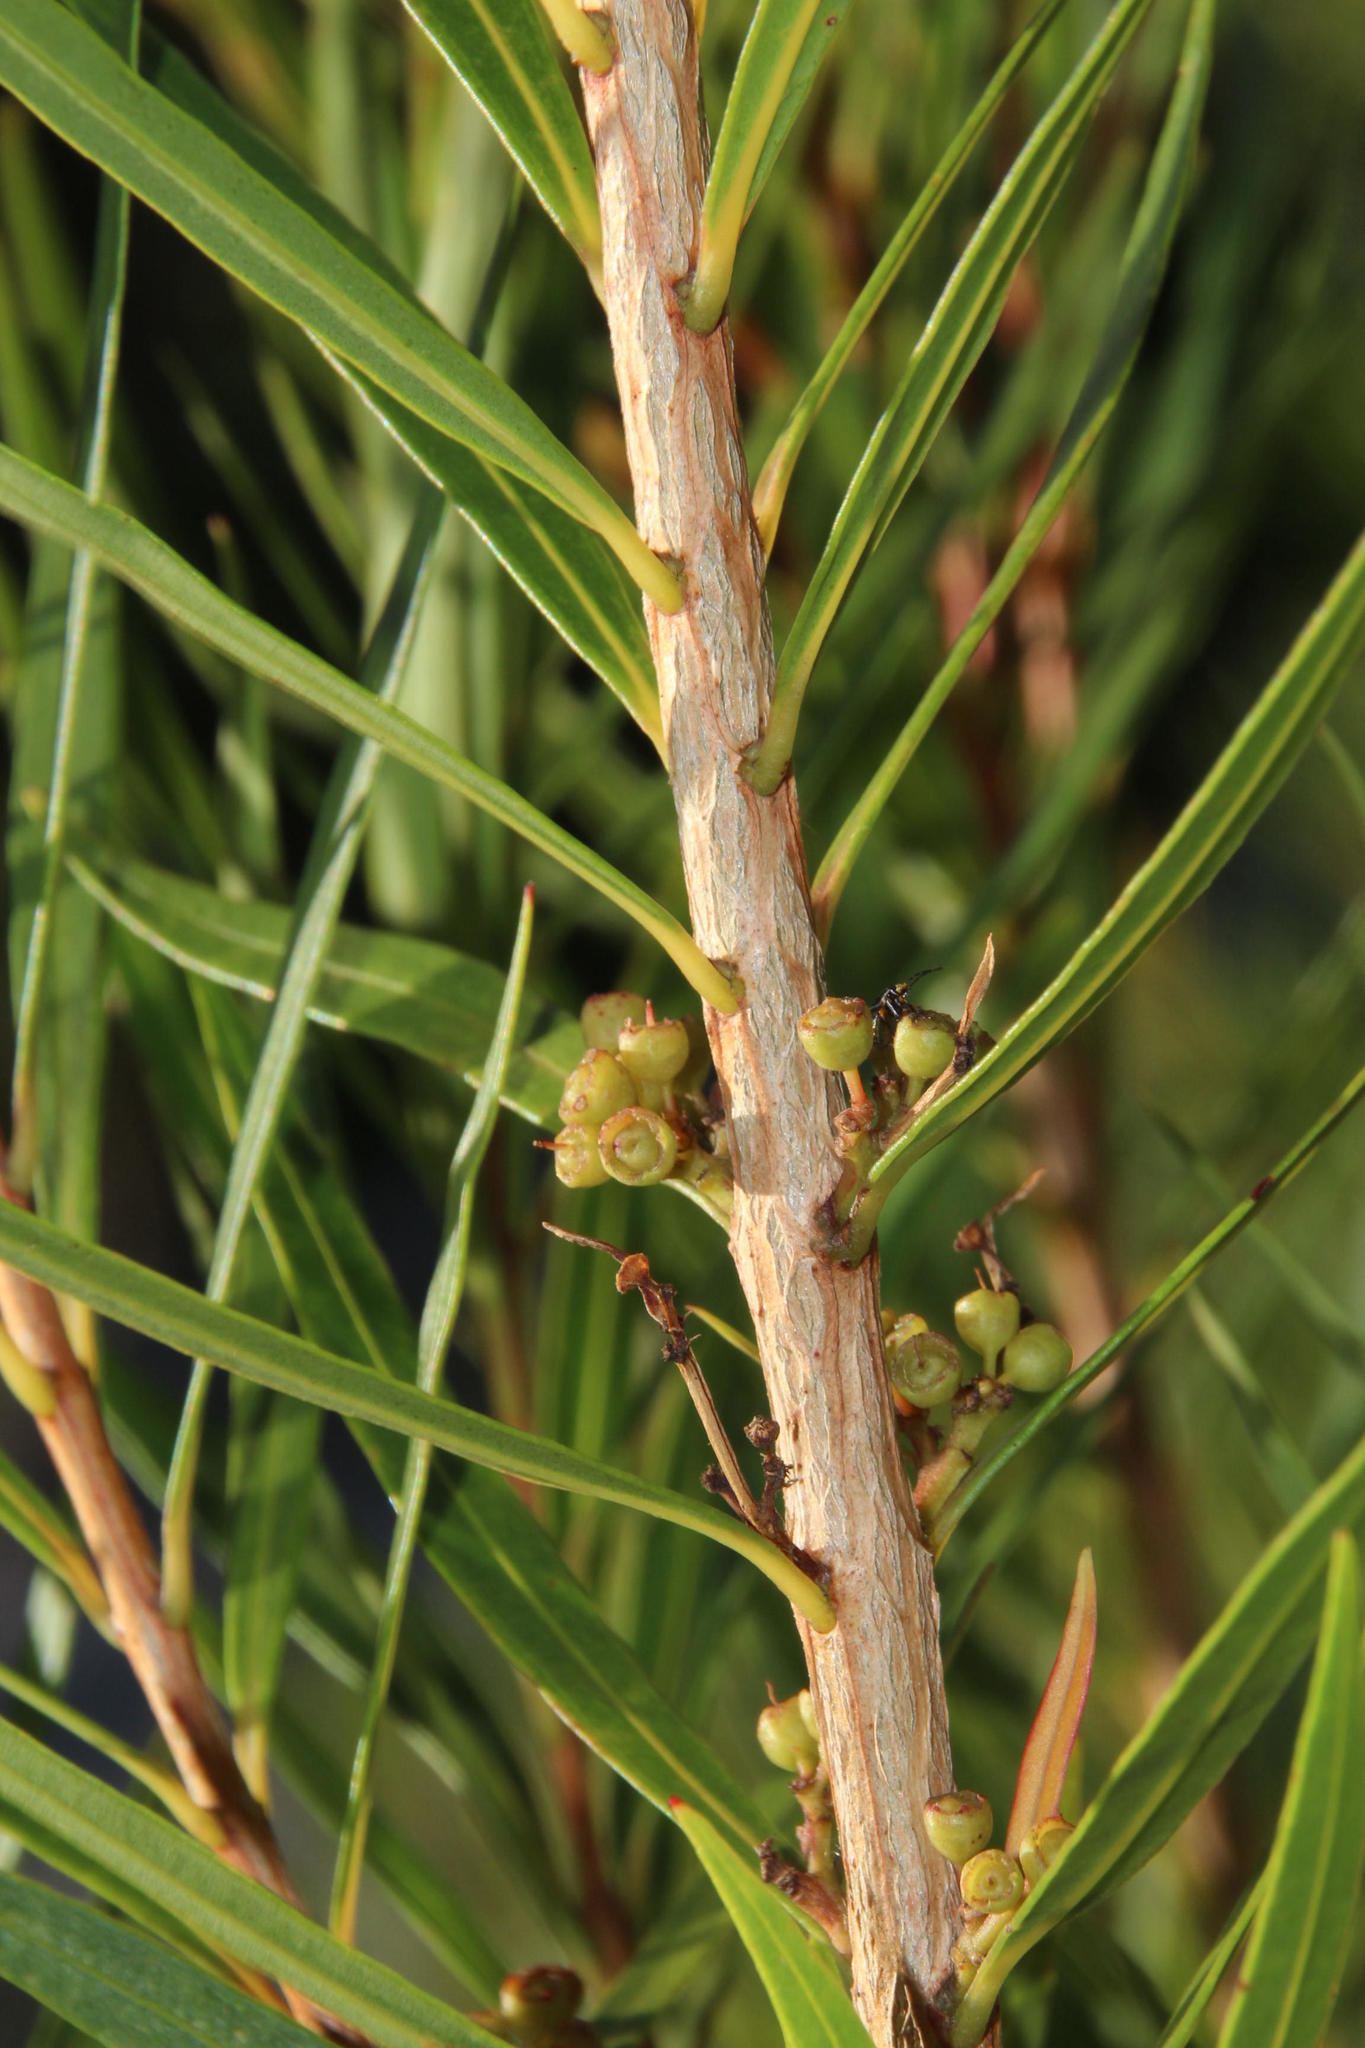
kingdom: Plantae
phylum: Tracheophyta
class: Magnoliopsida
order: Myrtales
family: Myrtaceae
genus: Callistemon
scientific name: Callistemon lanceolatus
